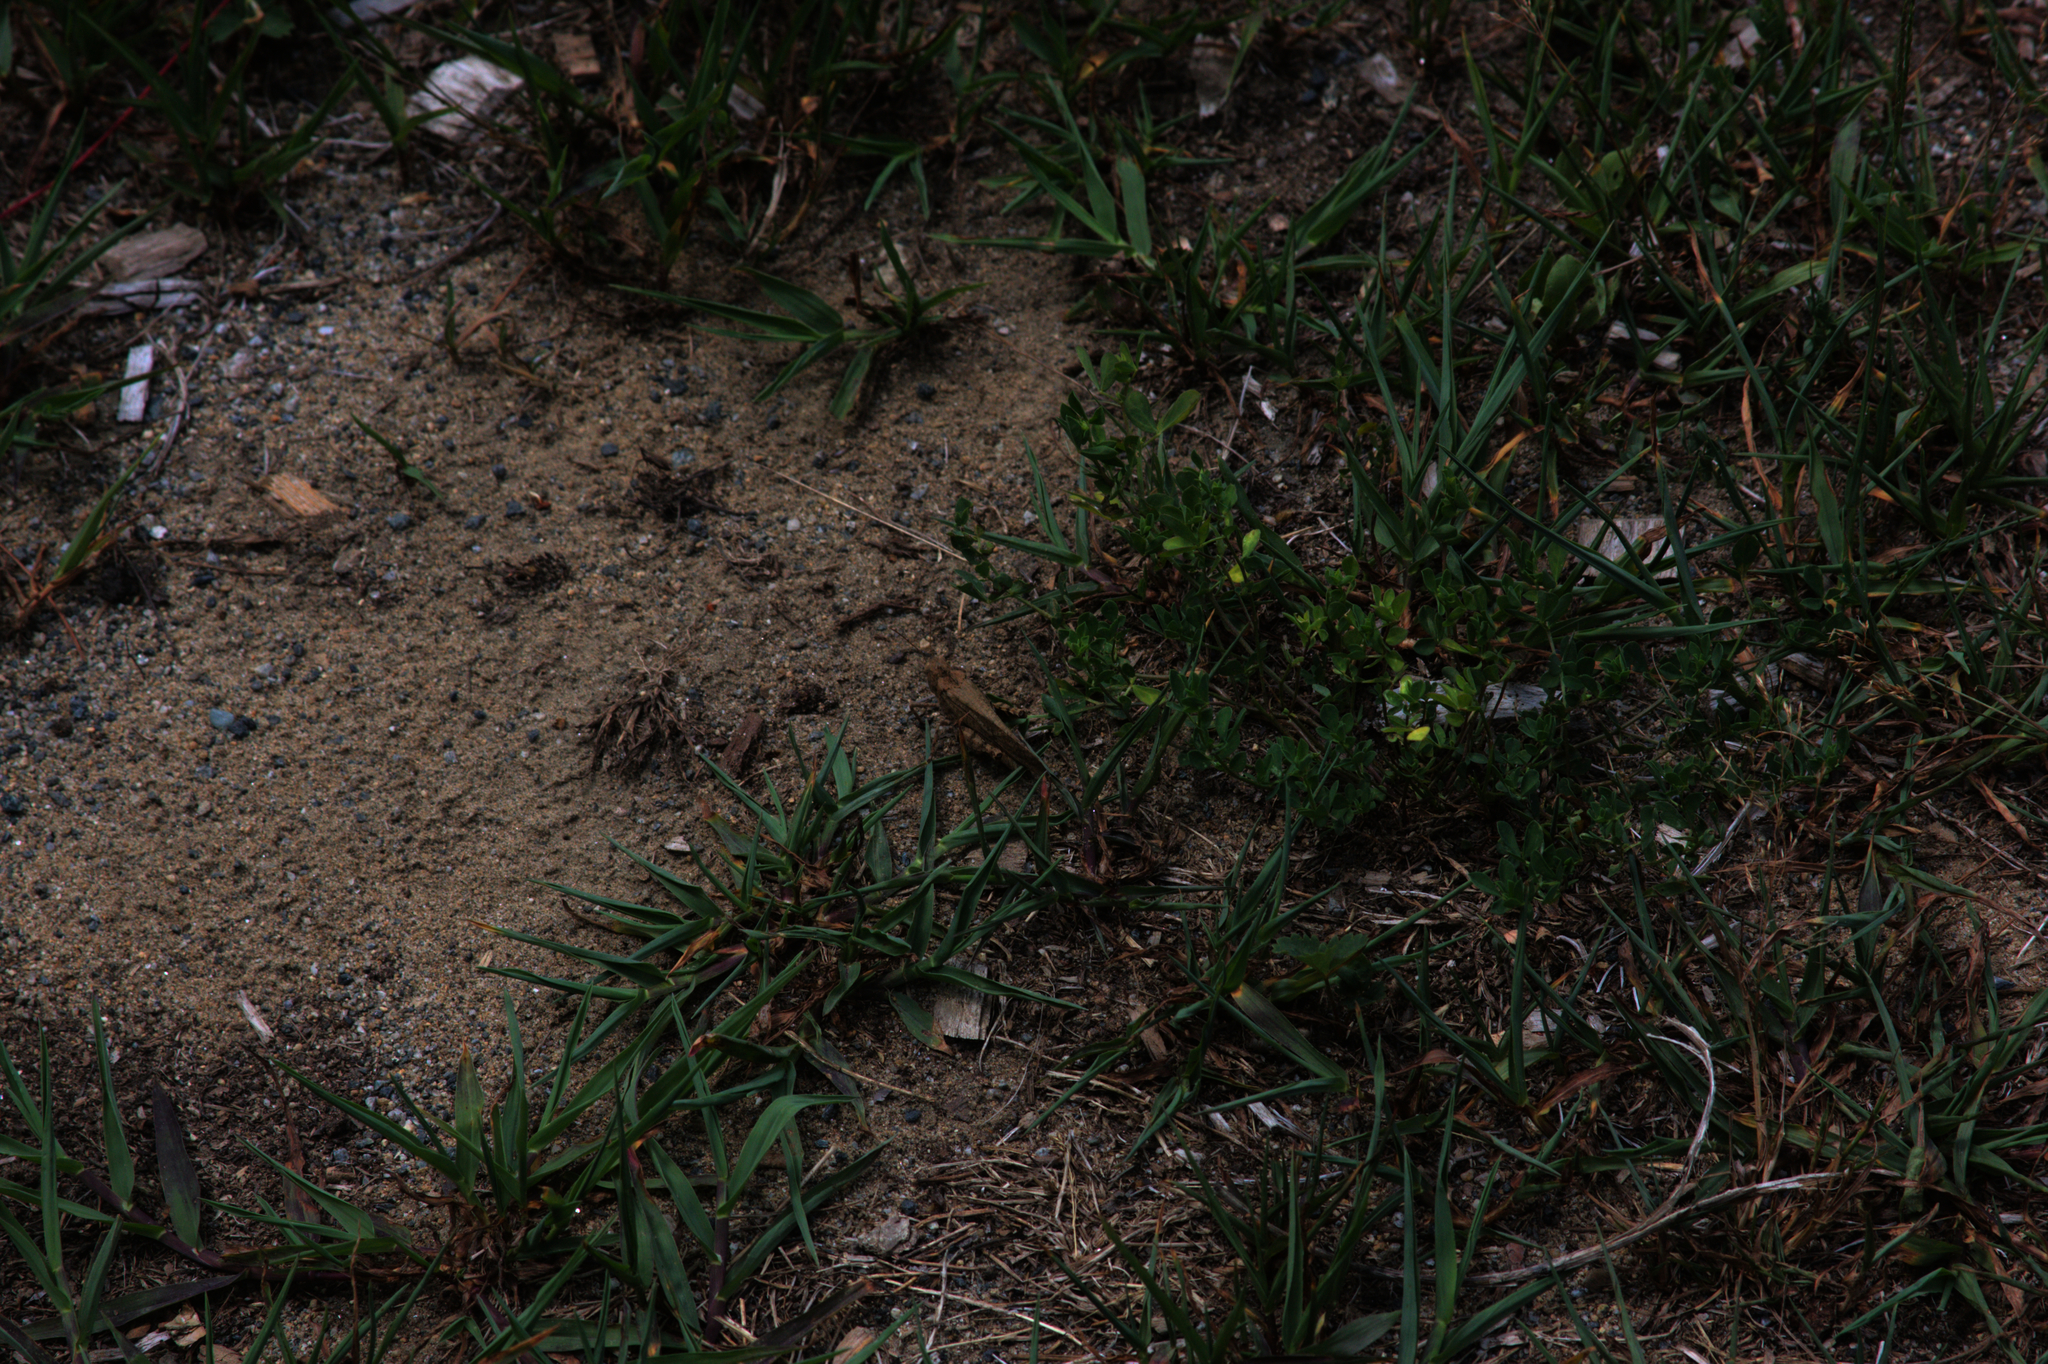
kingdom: Animalia
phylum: Arthropoda
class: Insecta
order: Orthoptera
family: Acrididae
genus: Dissosteira
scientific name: Dissosteira carolina
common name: Carolina grasshopper
